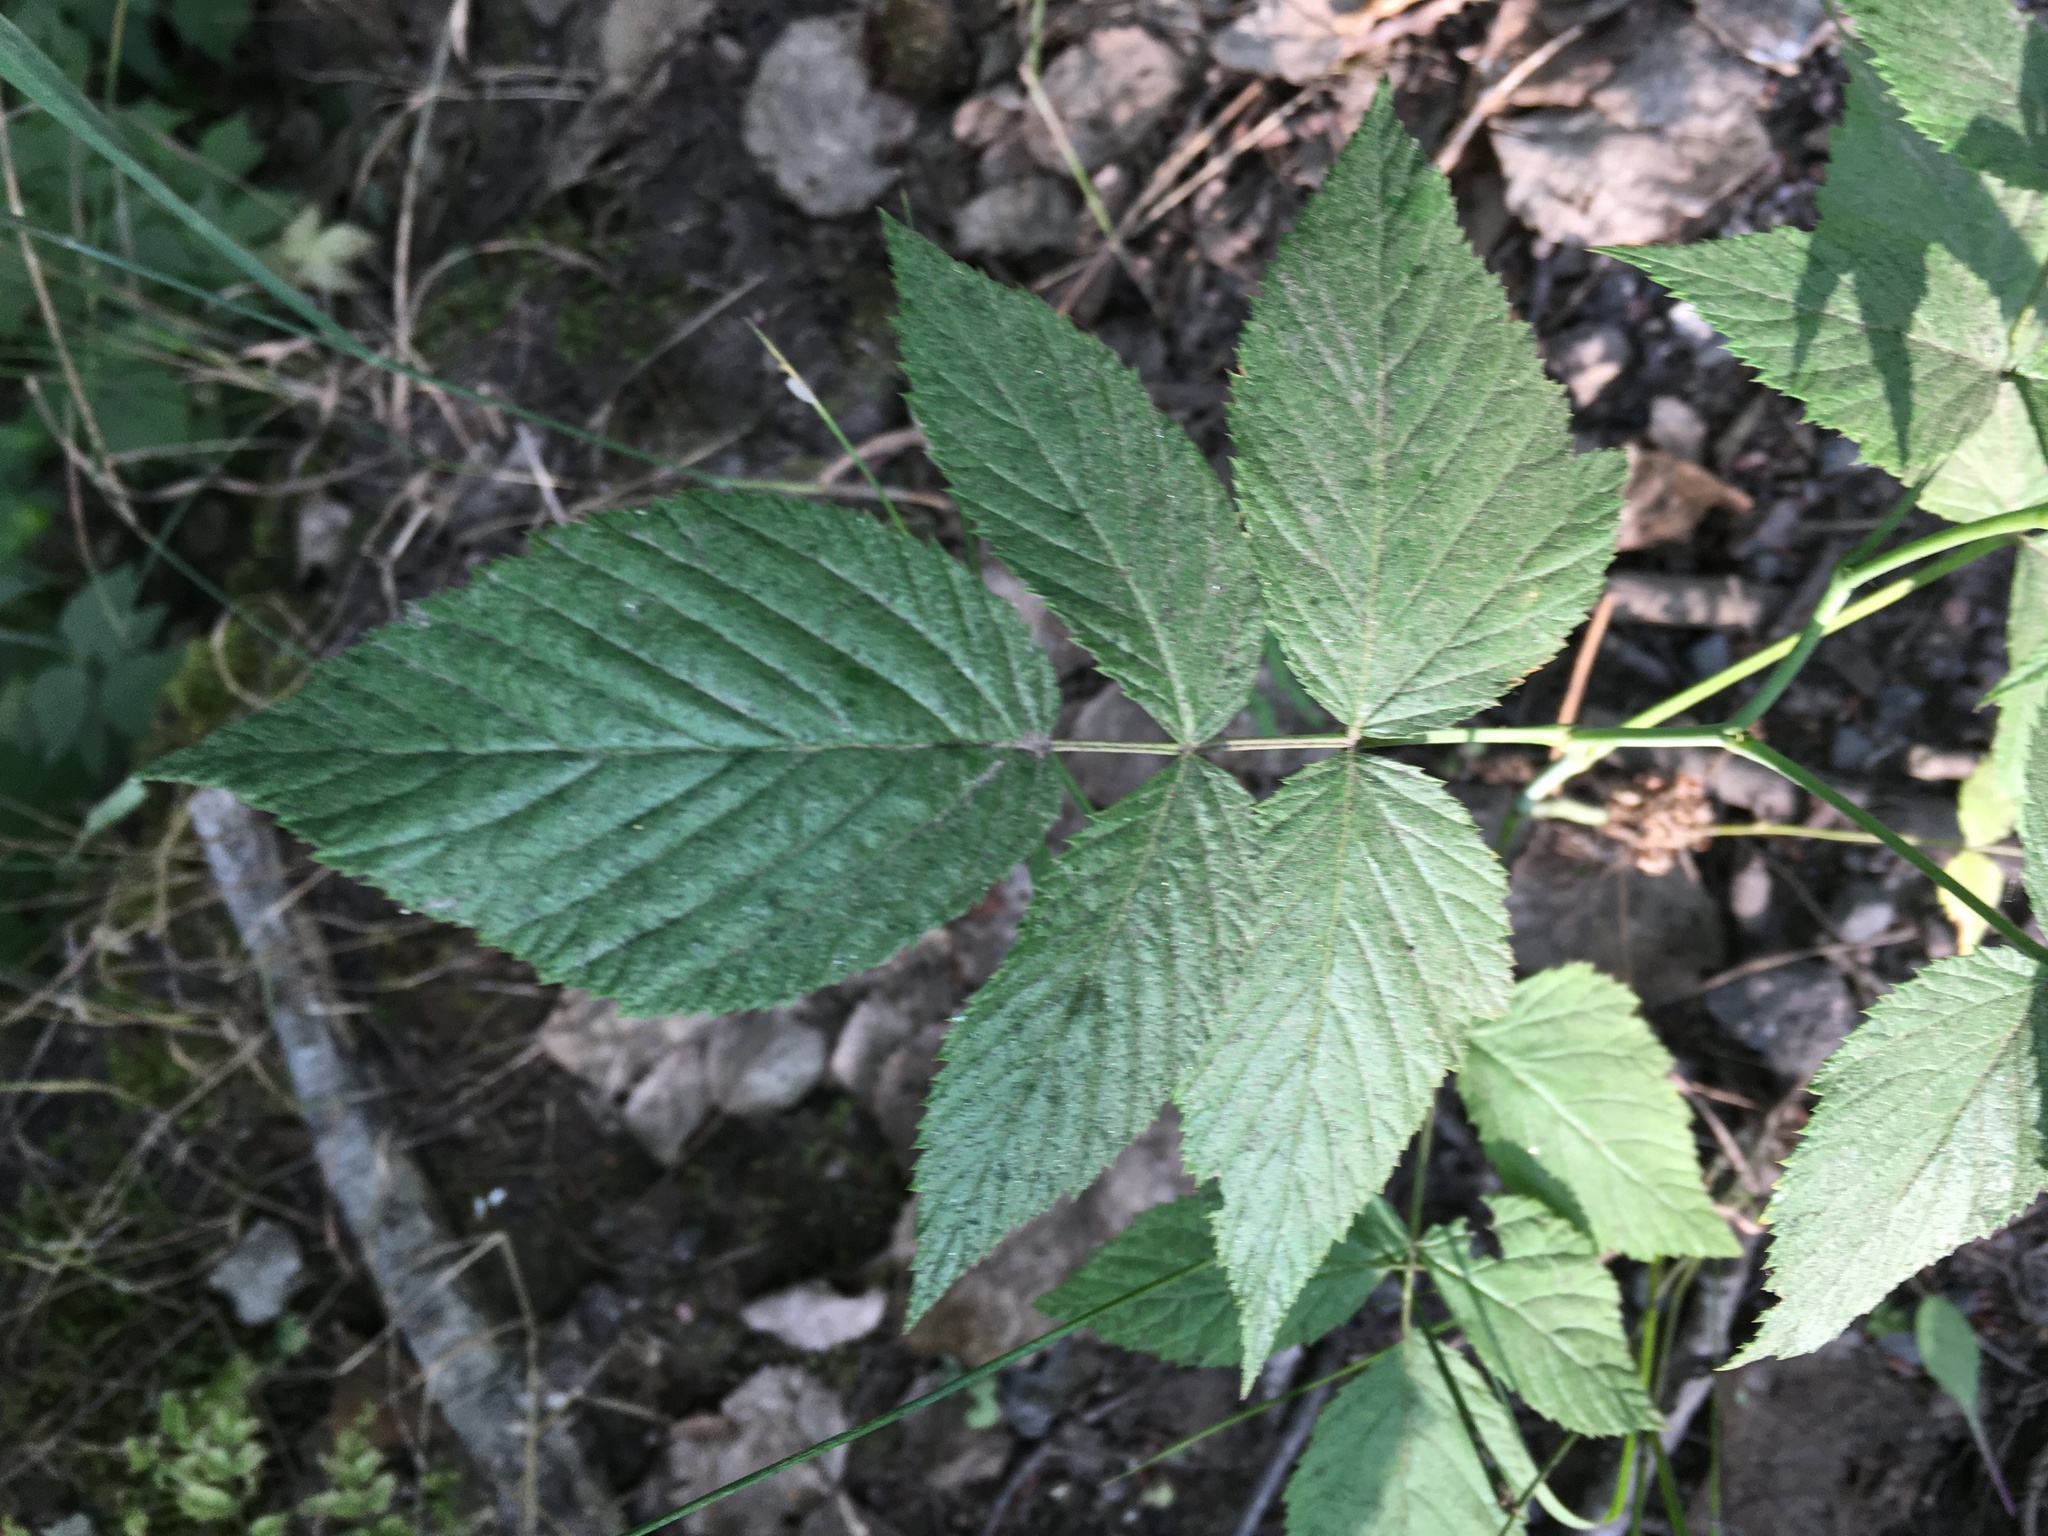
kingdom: Plantae
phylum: Tracheophyta
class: Magnoliopsida
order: Rosales
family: Rosaceae
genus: Rubus
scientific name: Rubus idaeus
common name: Raspberry
